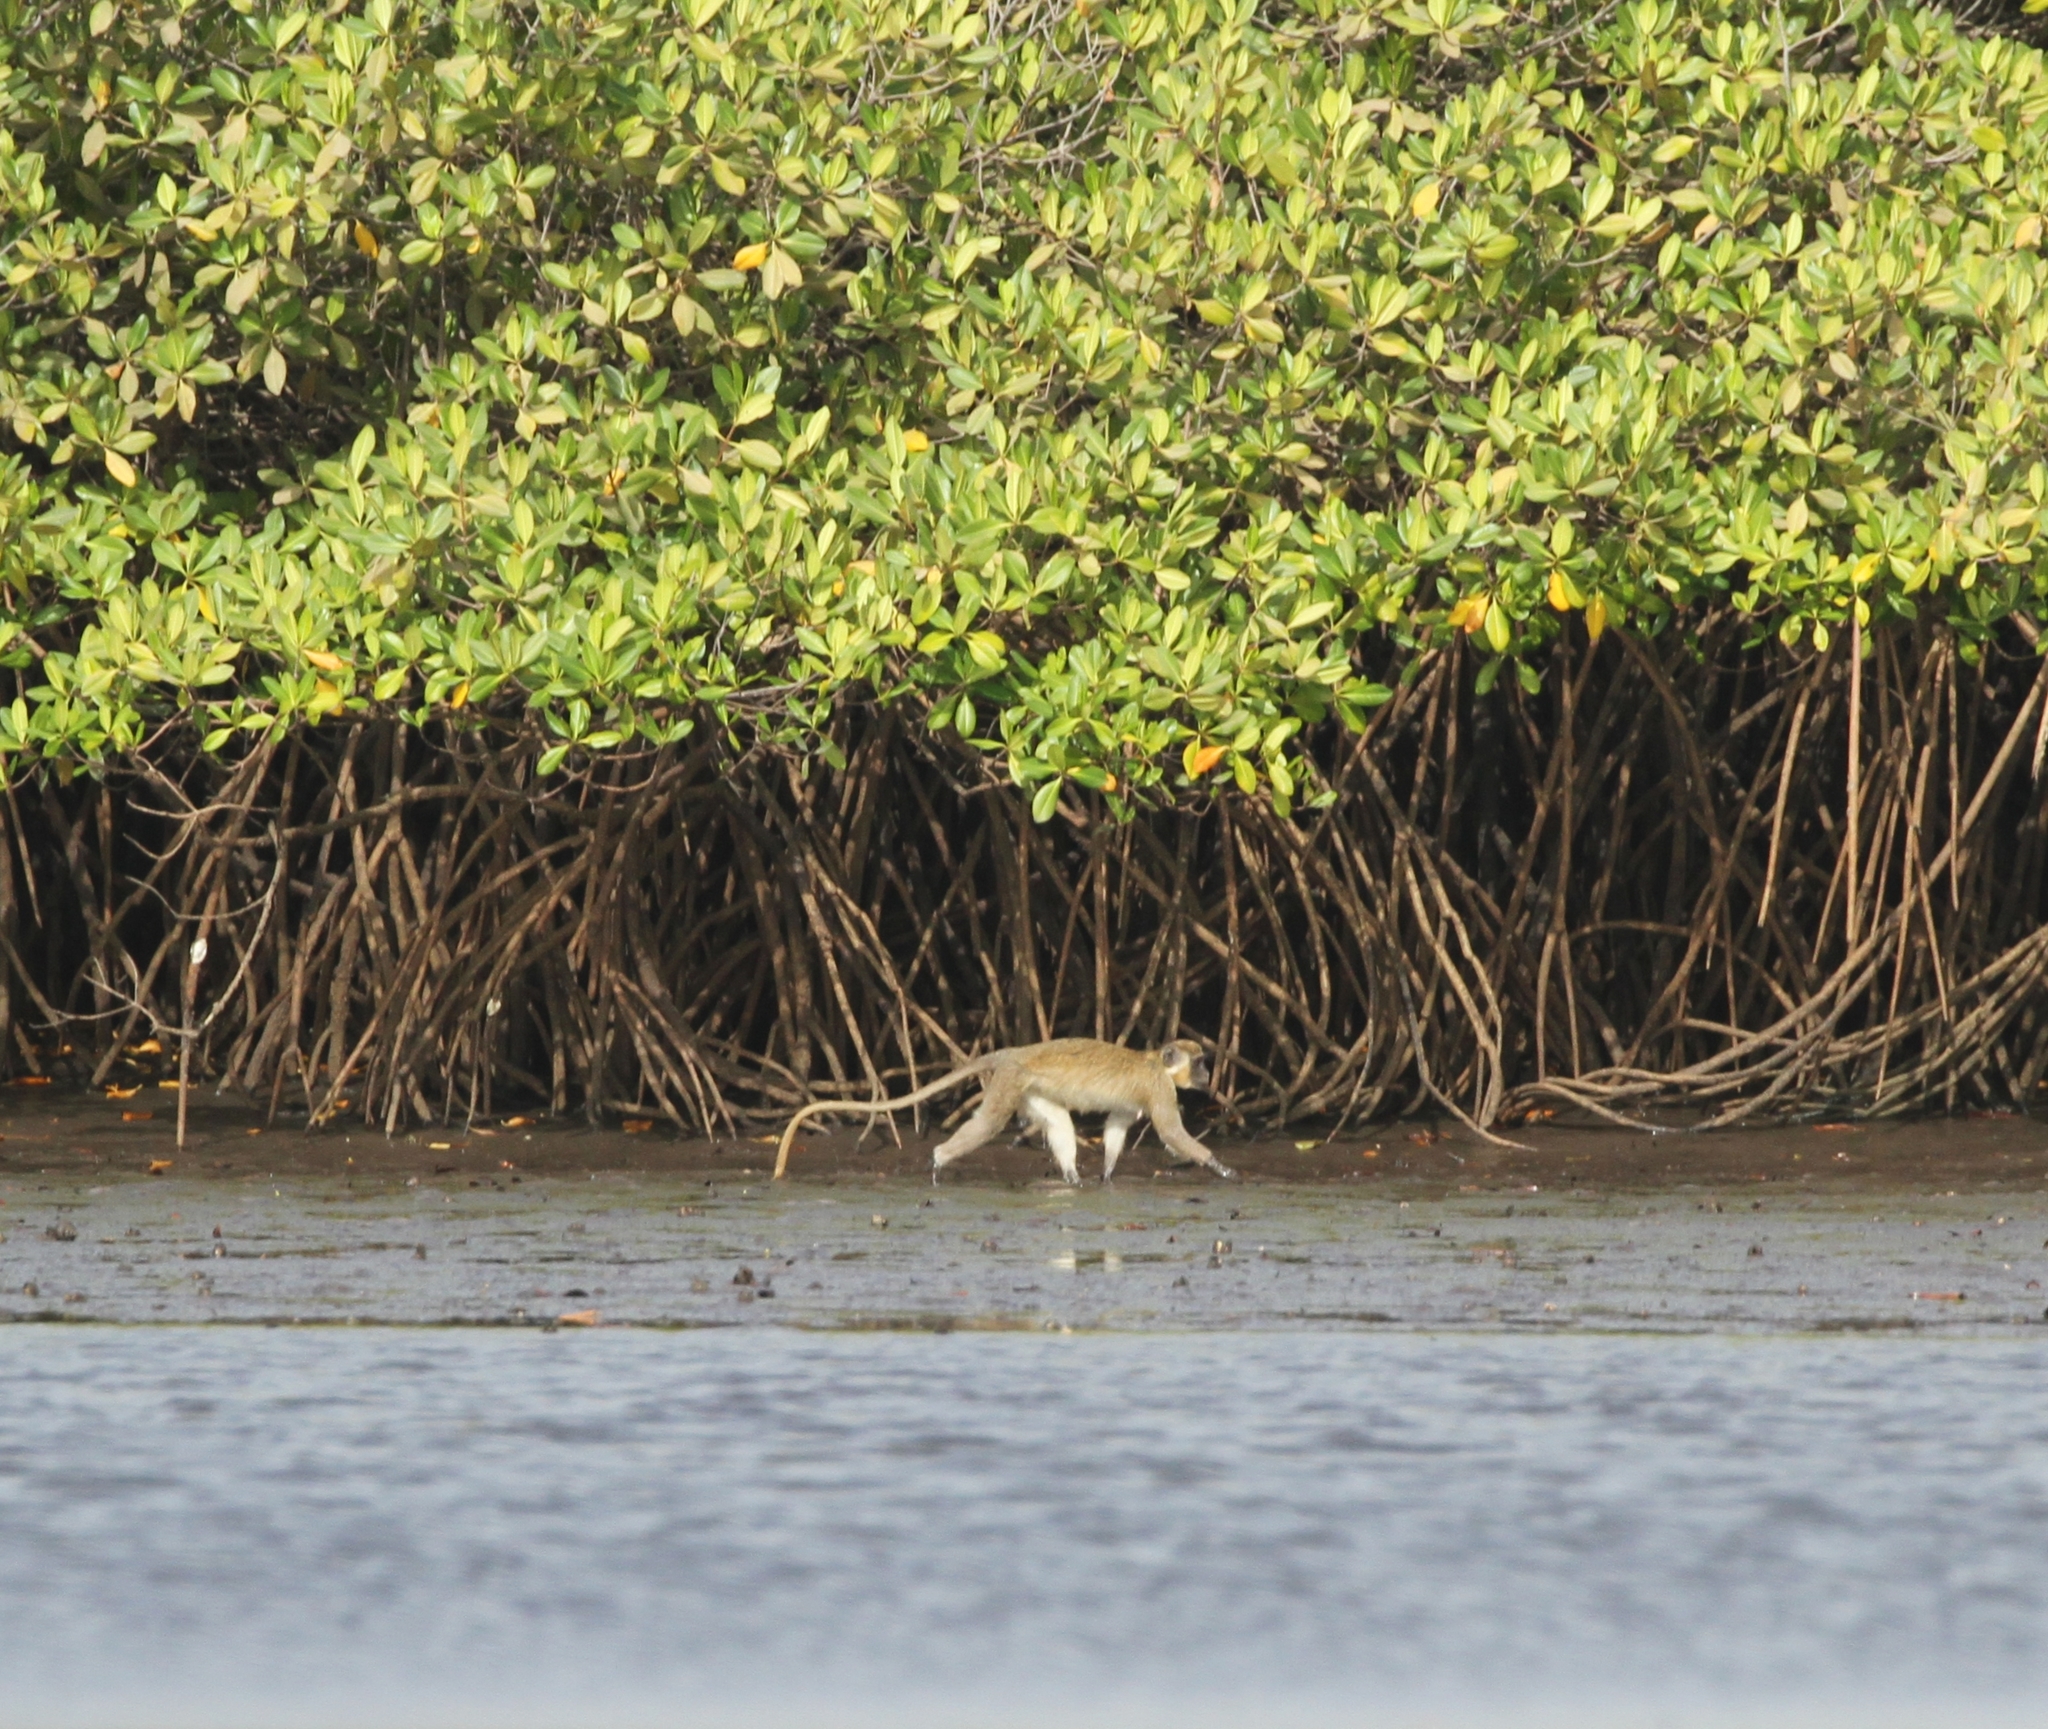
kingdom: Animalia
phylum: Chordata
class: Mammalia
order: Primates
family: Cercopithecidae
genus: Chlorocebus
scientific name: Chlorocebus sabaeus
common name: Green monkey
